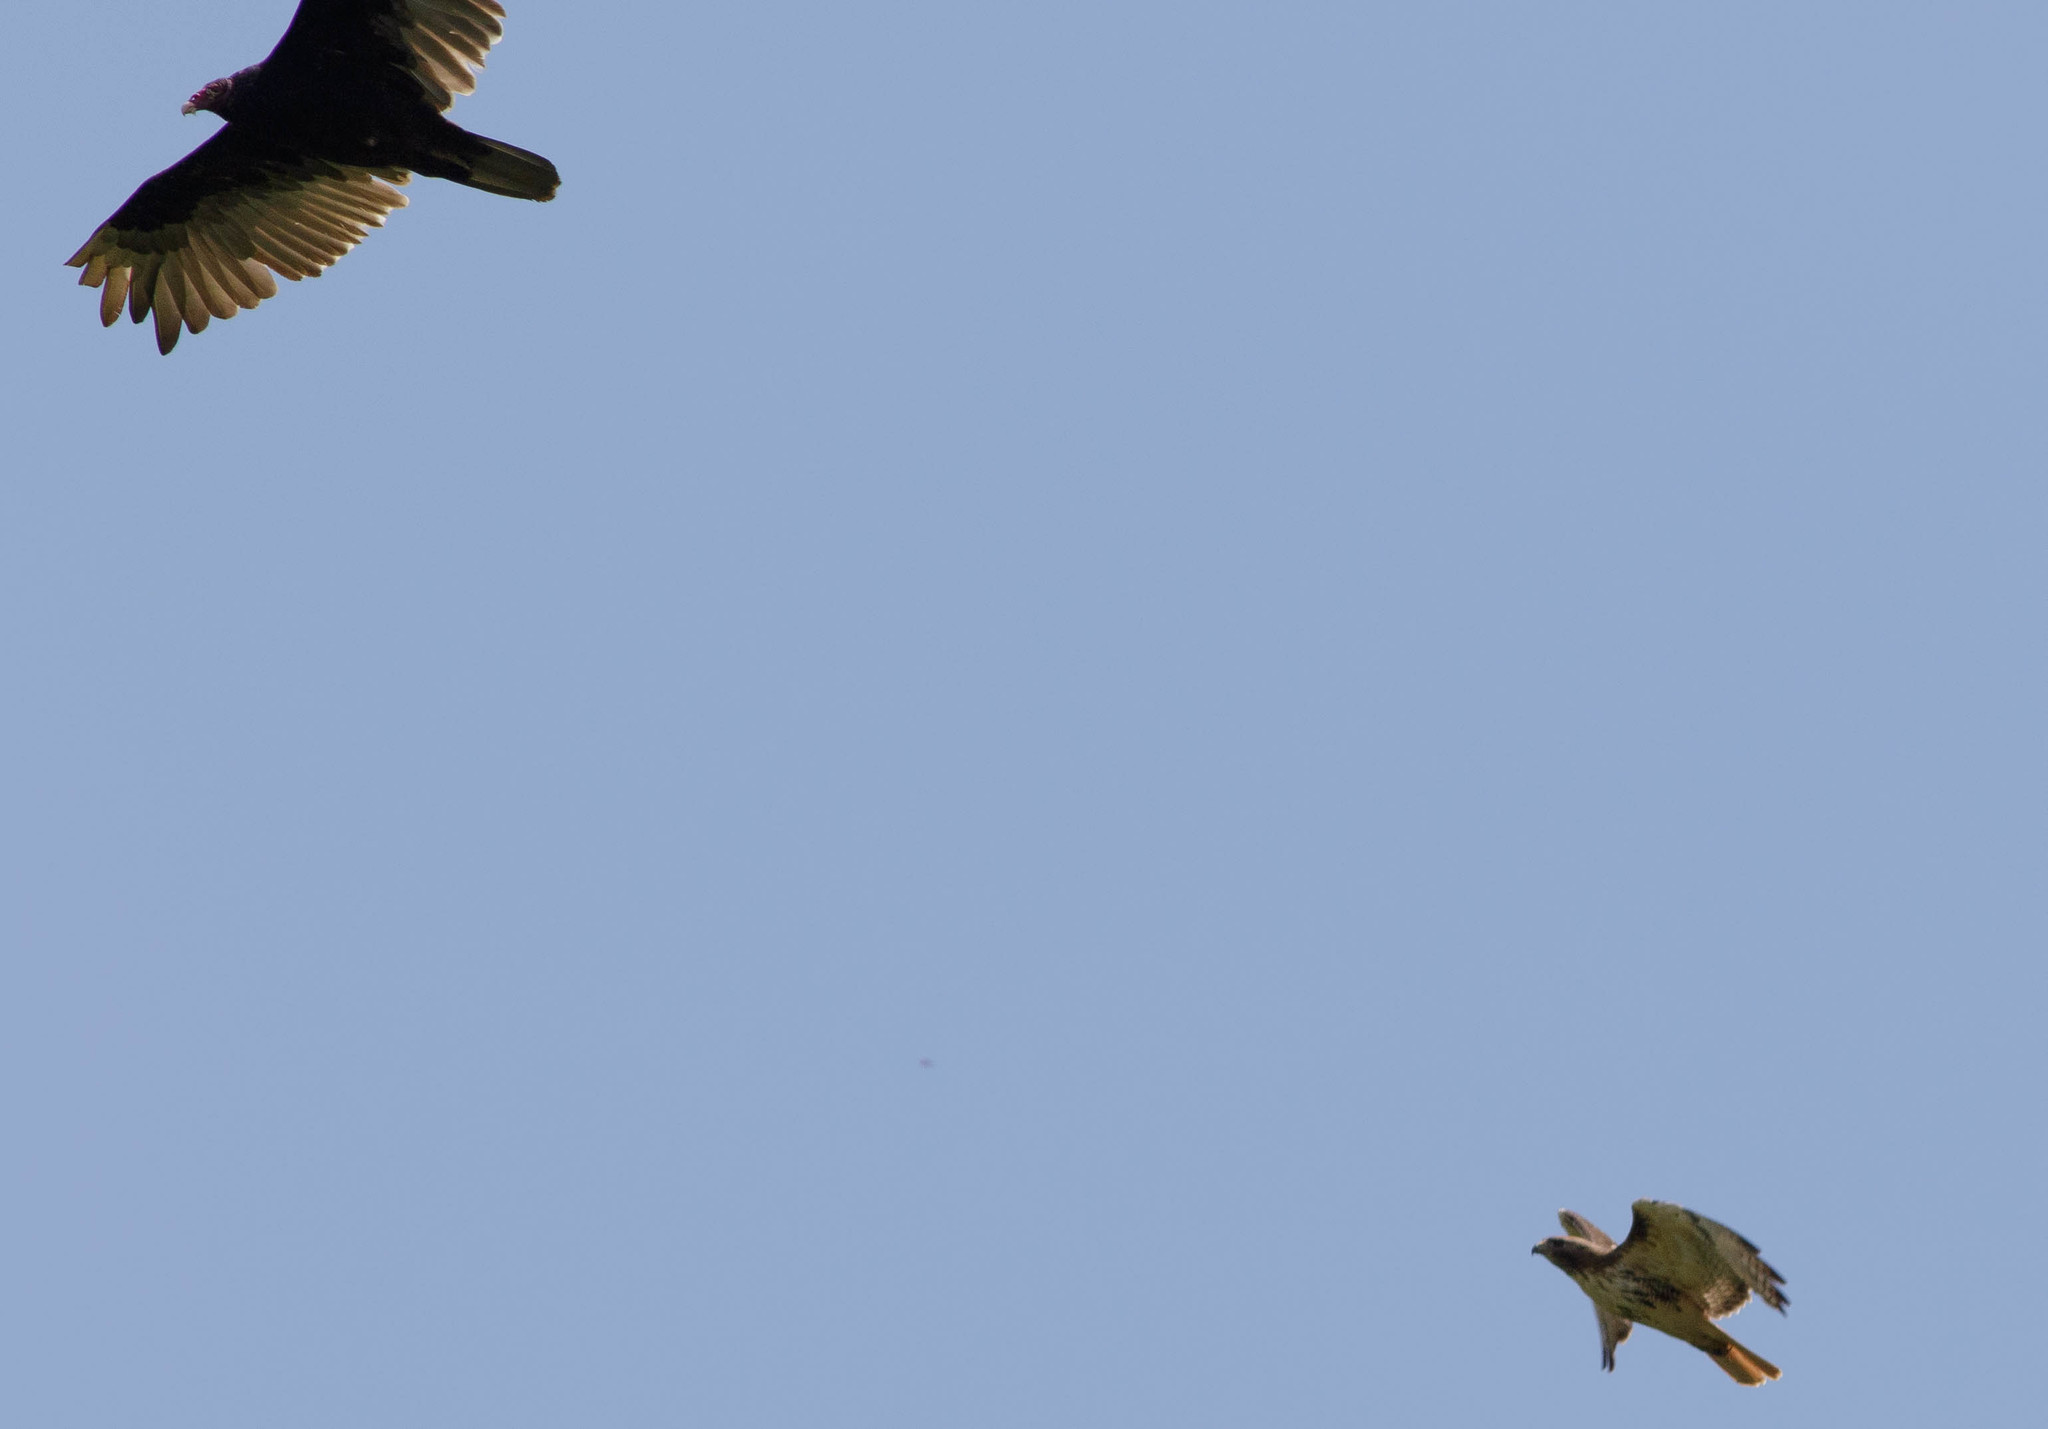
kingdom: Animalia
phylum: Chordata
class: Aves
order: Accipitriformes
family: Cathartidae
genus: Cathartes
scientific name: Cathartes aura
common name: Turkey vulture
